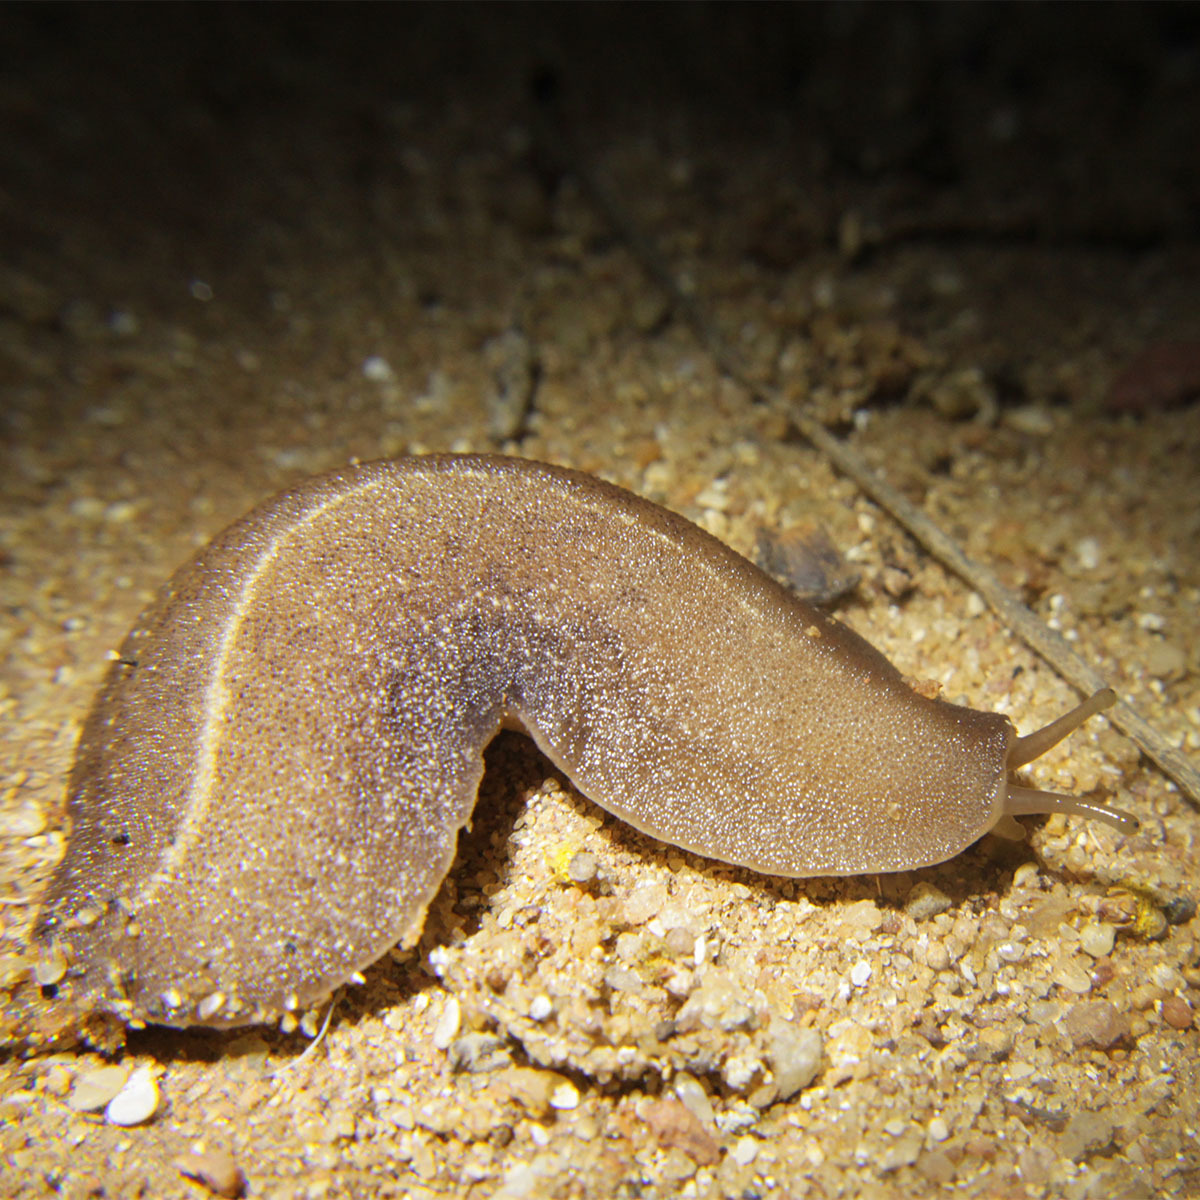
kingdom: Animalia
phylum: Mollusca
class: Gastropoda
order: Systellommatophora
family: Veronicellidae
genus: Laevicaulis
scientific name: Laevicaulis alte
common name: Tropical leatherleaf
